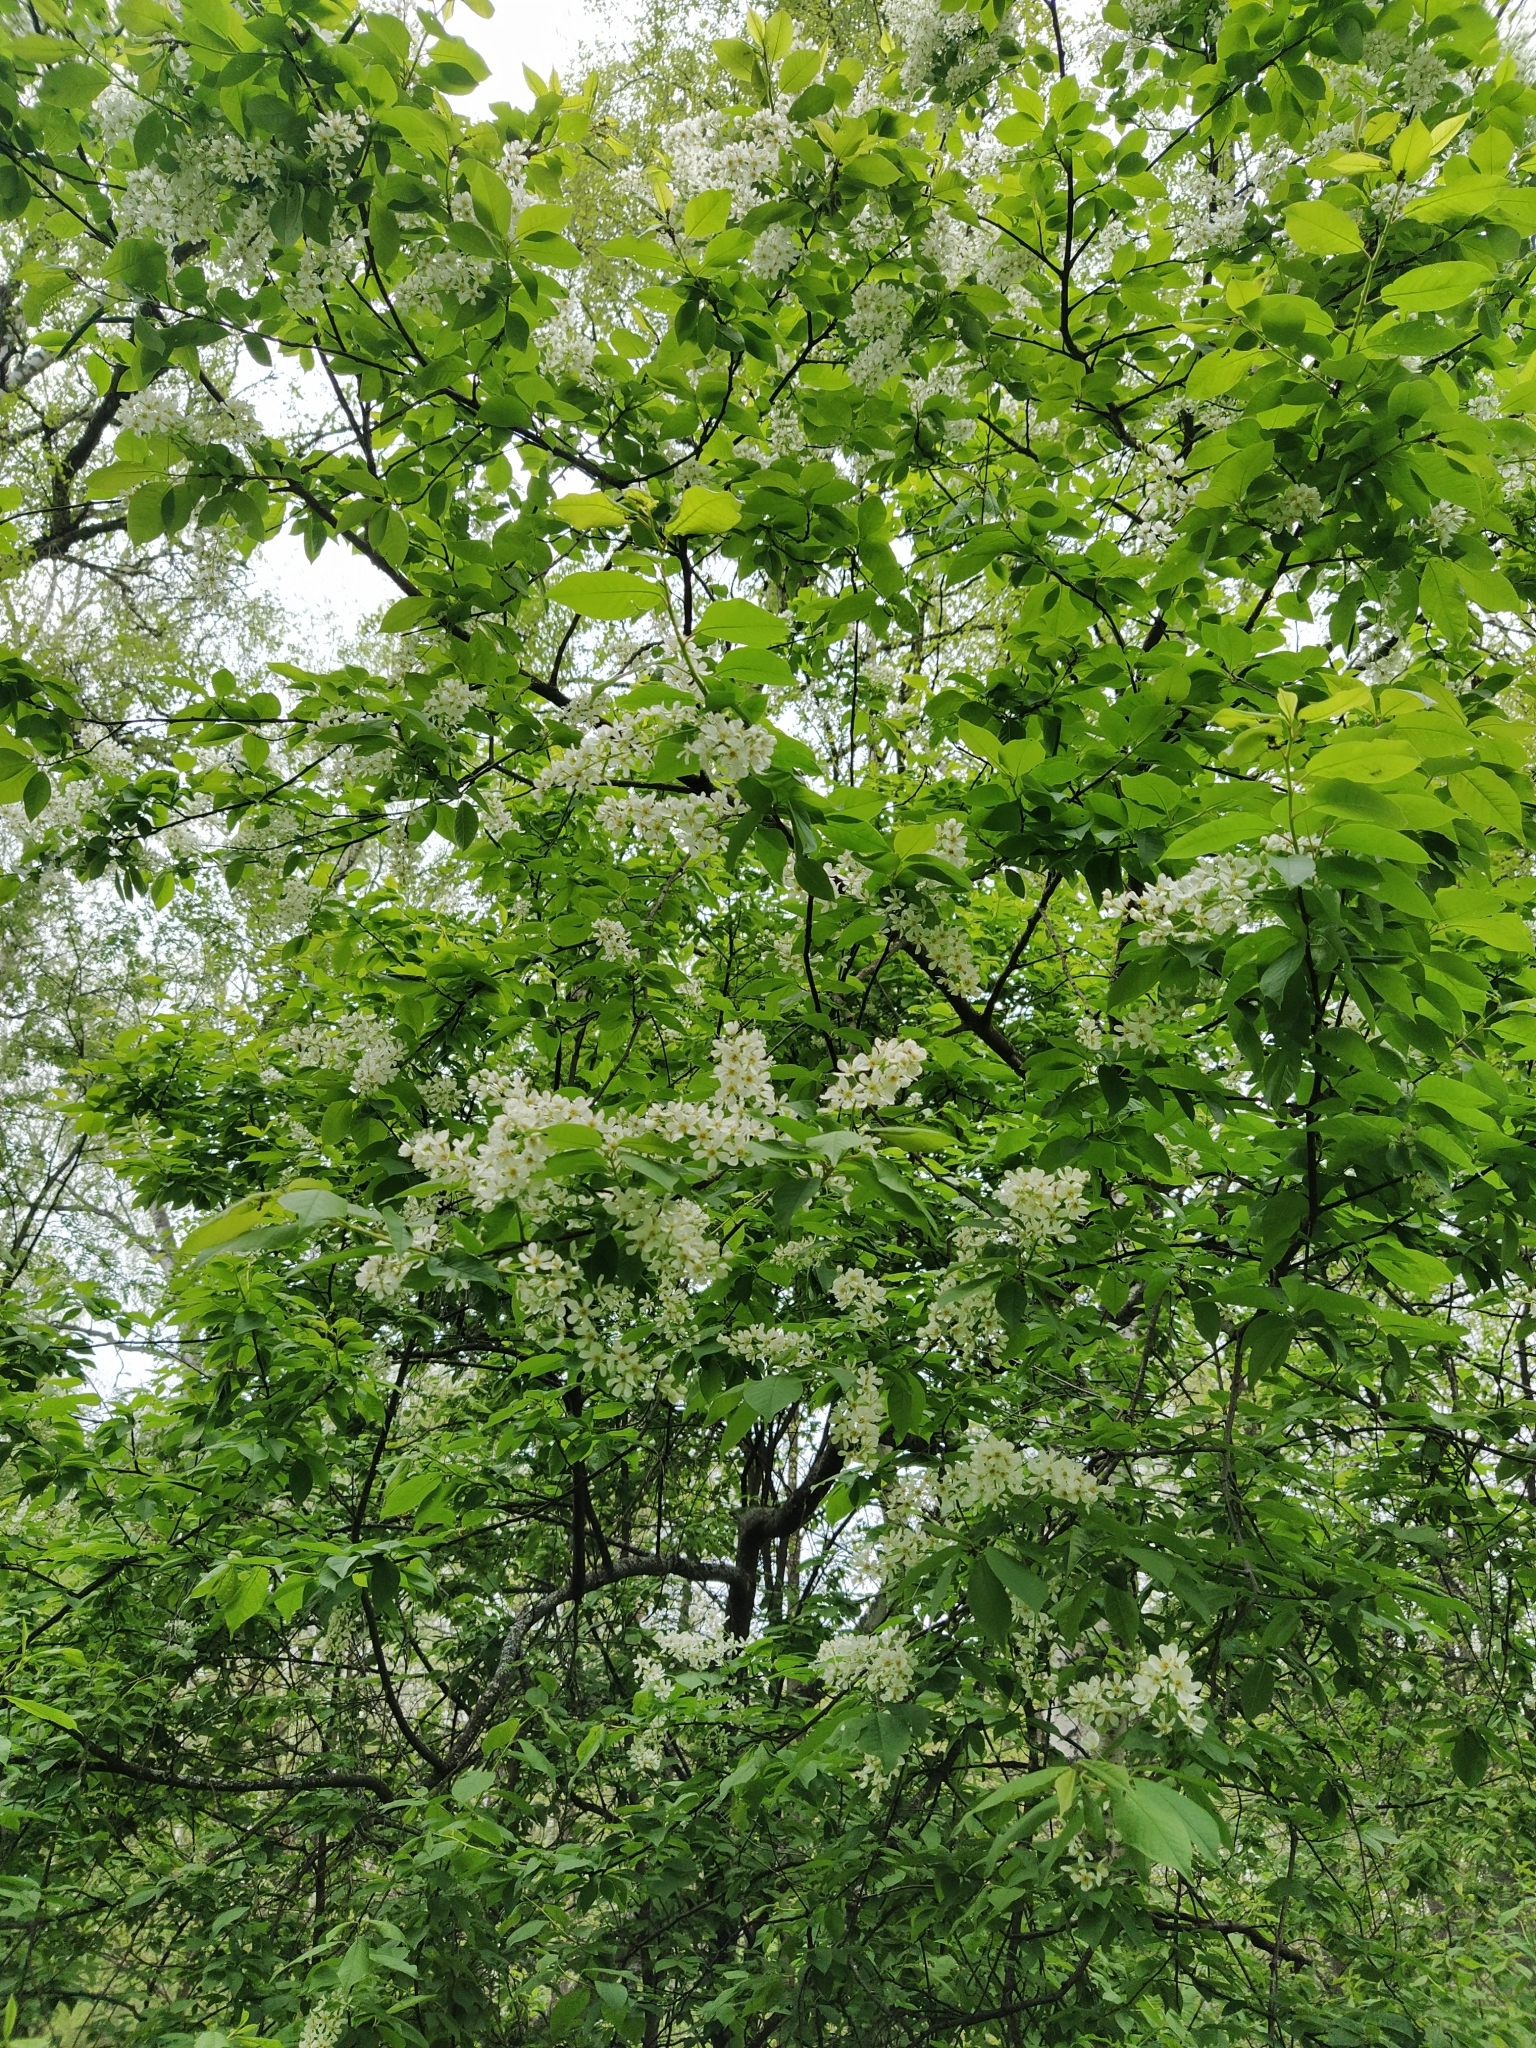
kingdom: Plantae
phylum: Tracheophyta
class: Magnoliopsida
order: Rosales
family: Rosaceae
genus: Prunus
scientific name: Prunus padus
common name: Bird cherry
